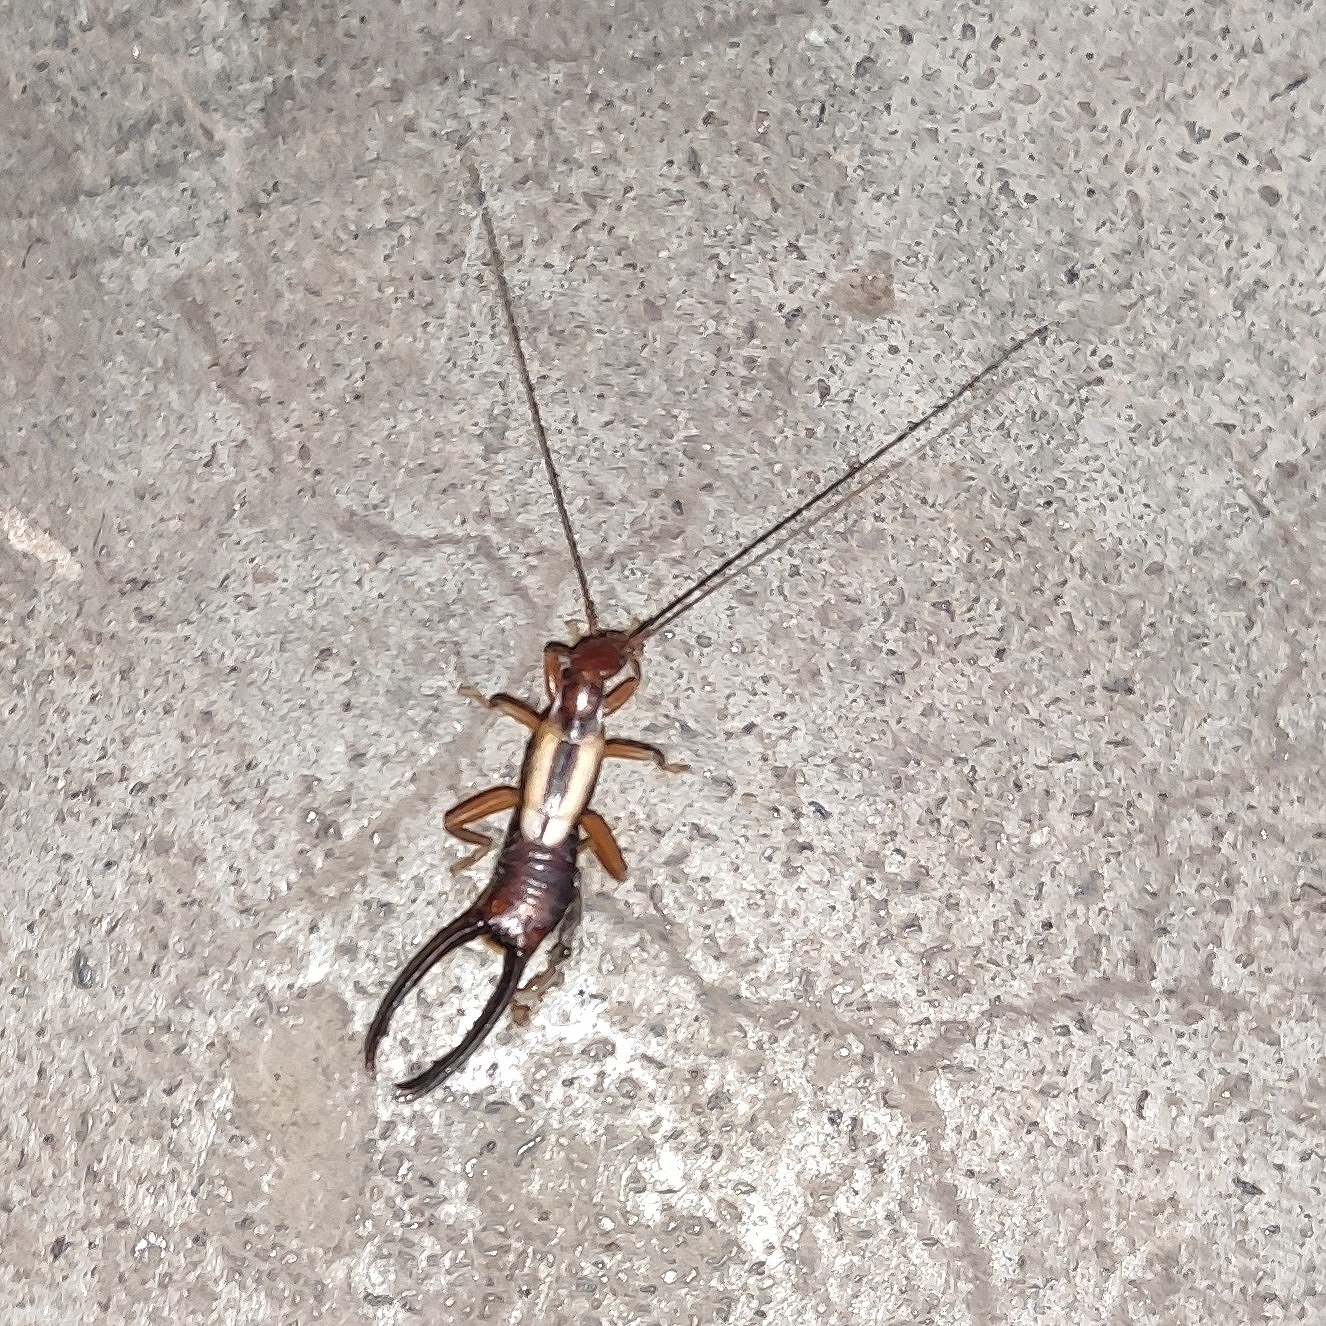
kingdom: Animalia
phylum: Arthropoda
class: Insecta
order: Dermaptera
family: Chelisochidae
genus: Proreus
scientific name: Proreus decipiens
